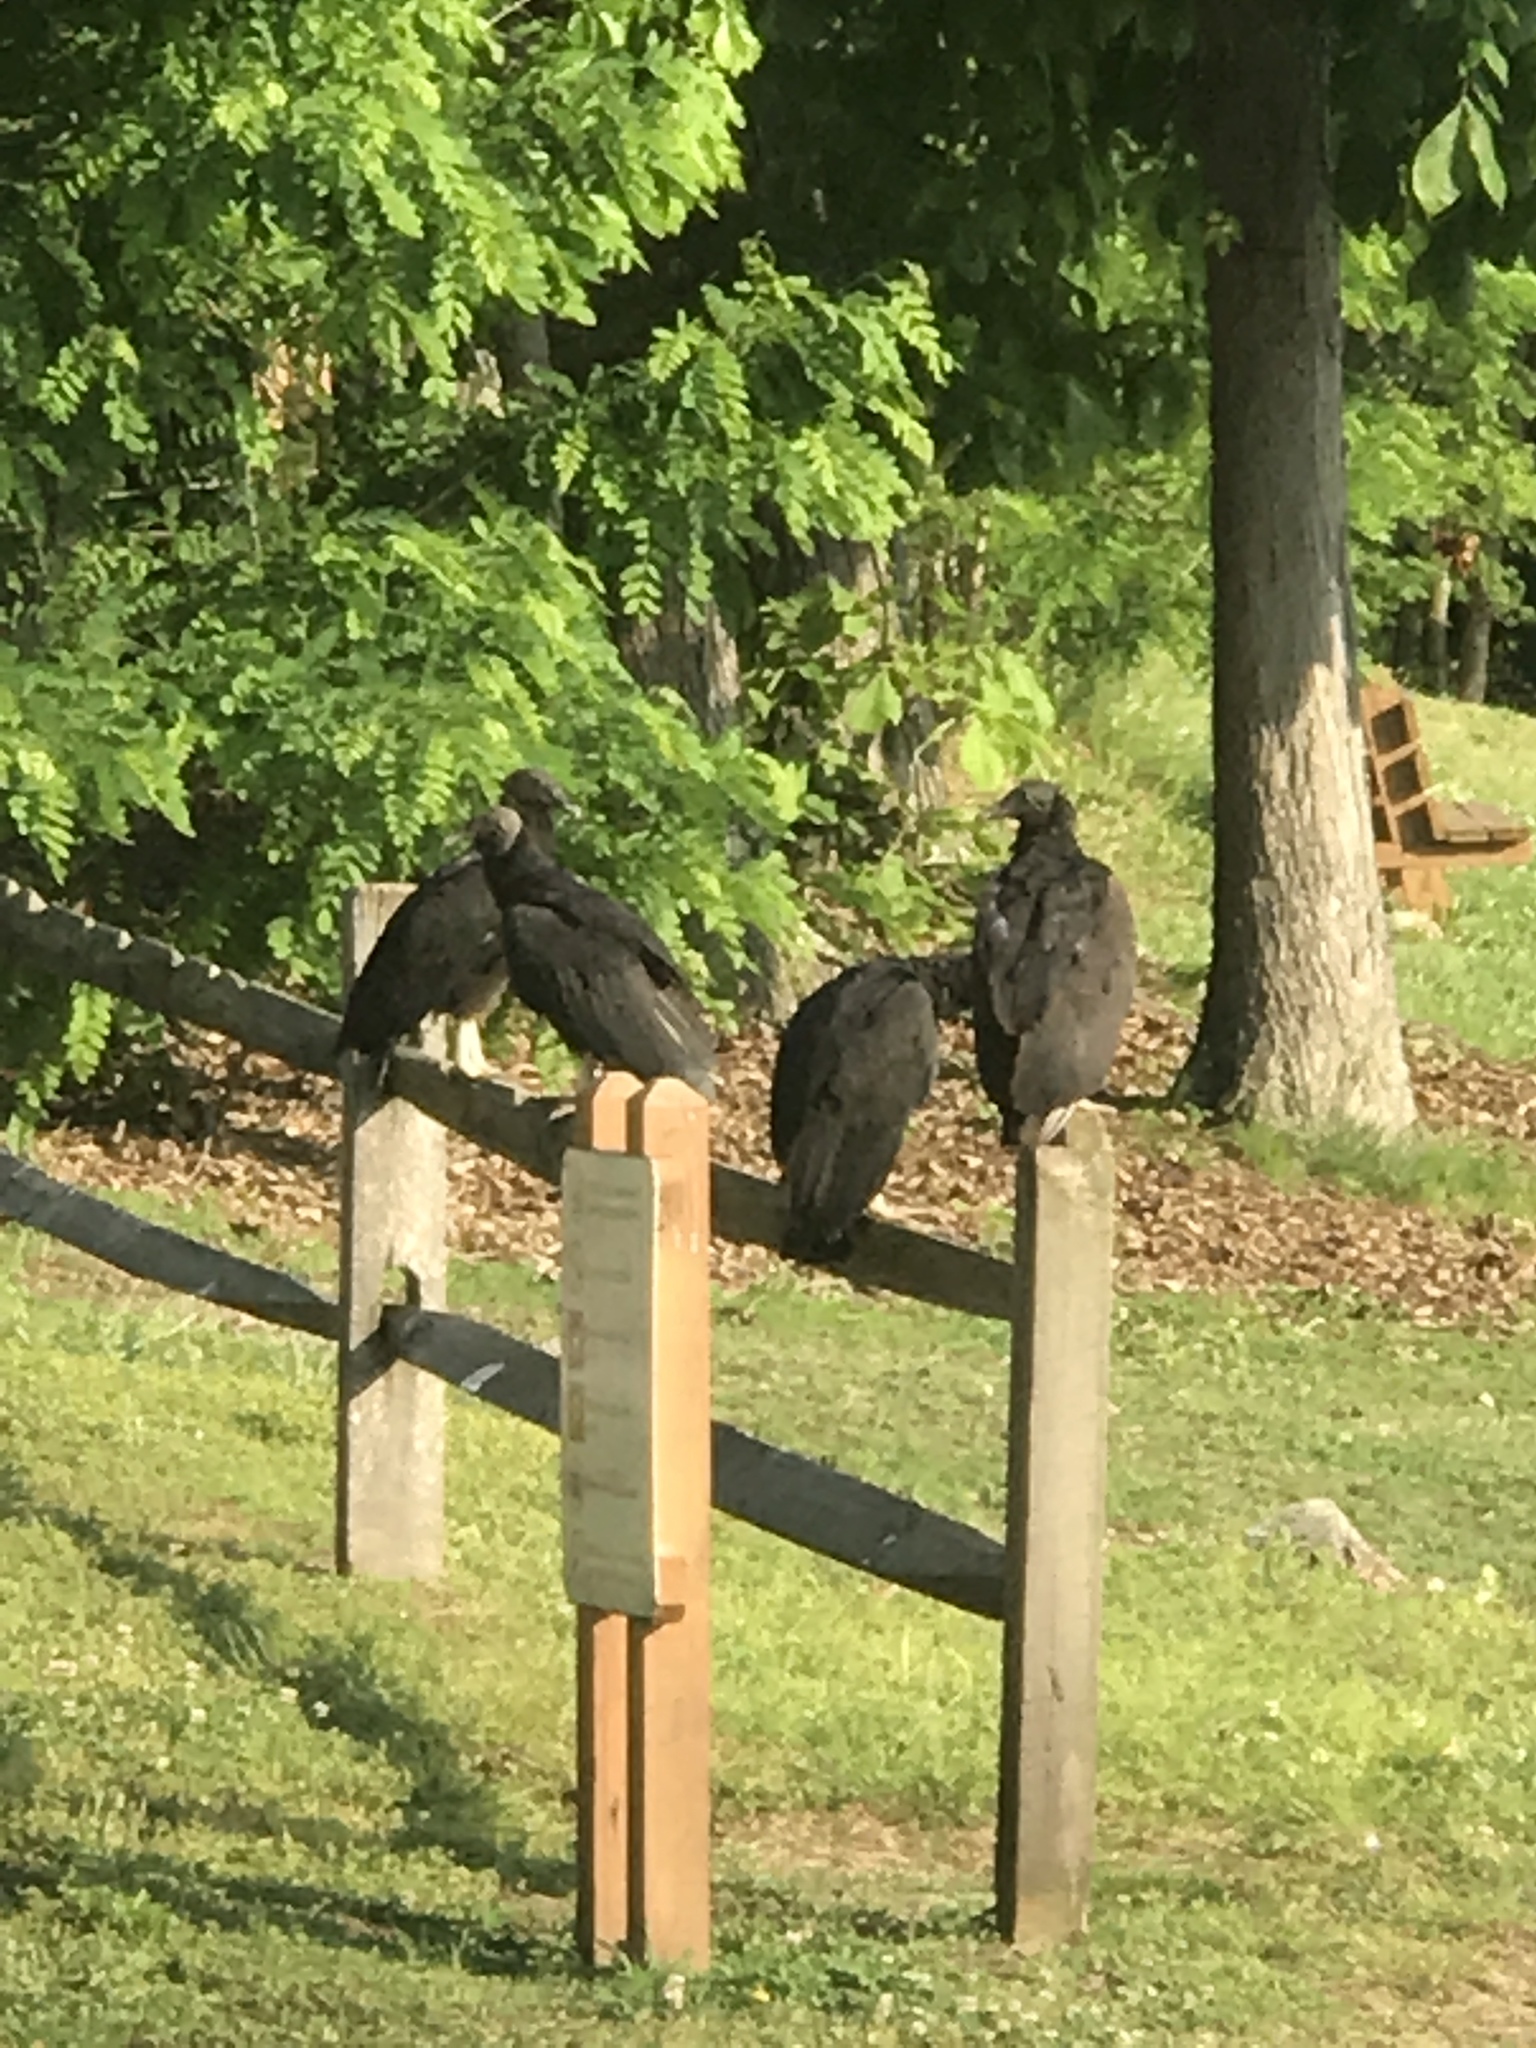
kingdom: Animalia
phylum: Chordata
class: Aves
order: Accipitriformes
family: Cathartidae
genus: Coragyps
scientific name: Coragyps atratus
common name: Black vulture
